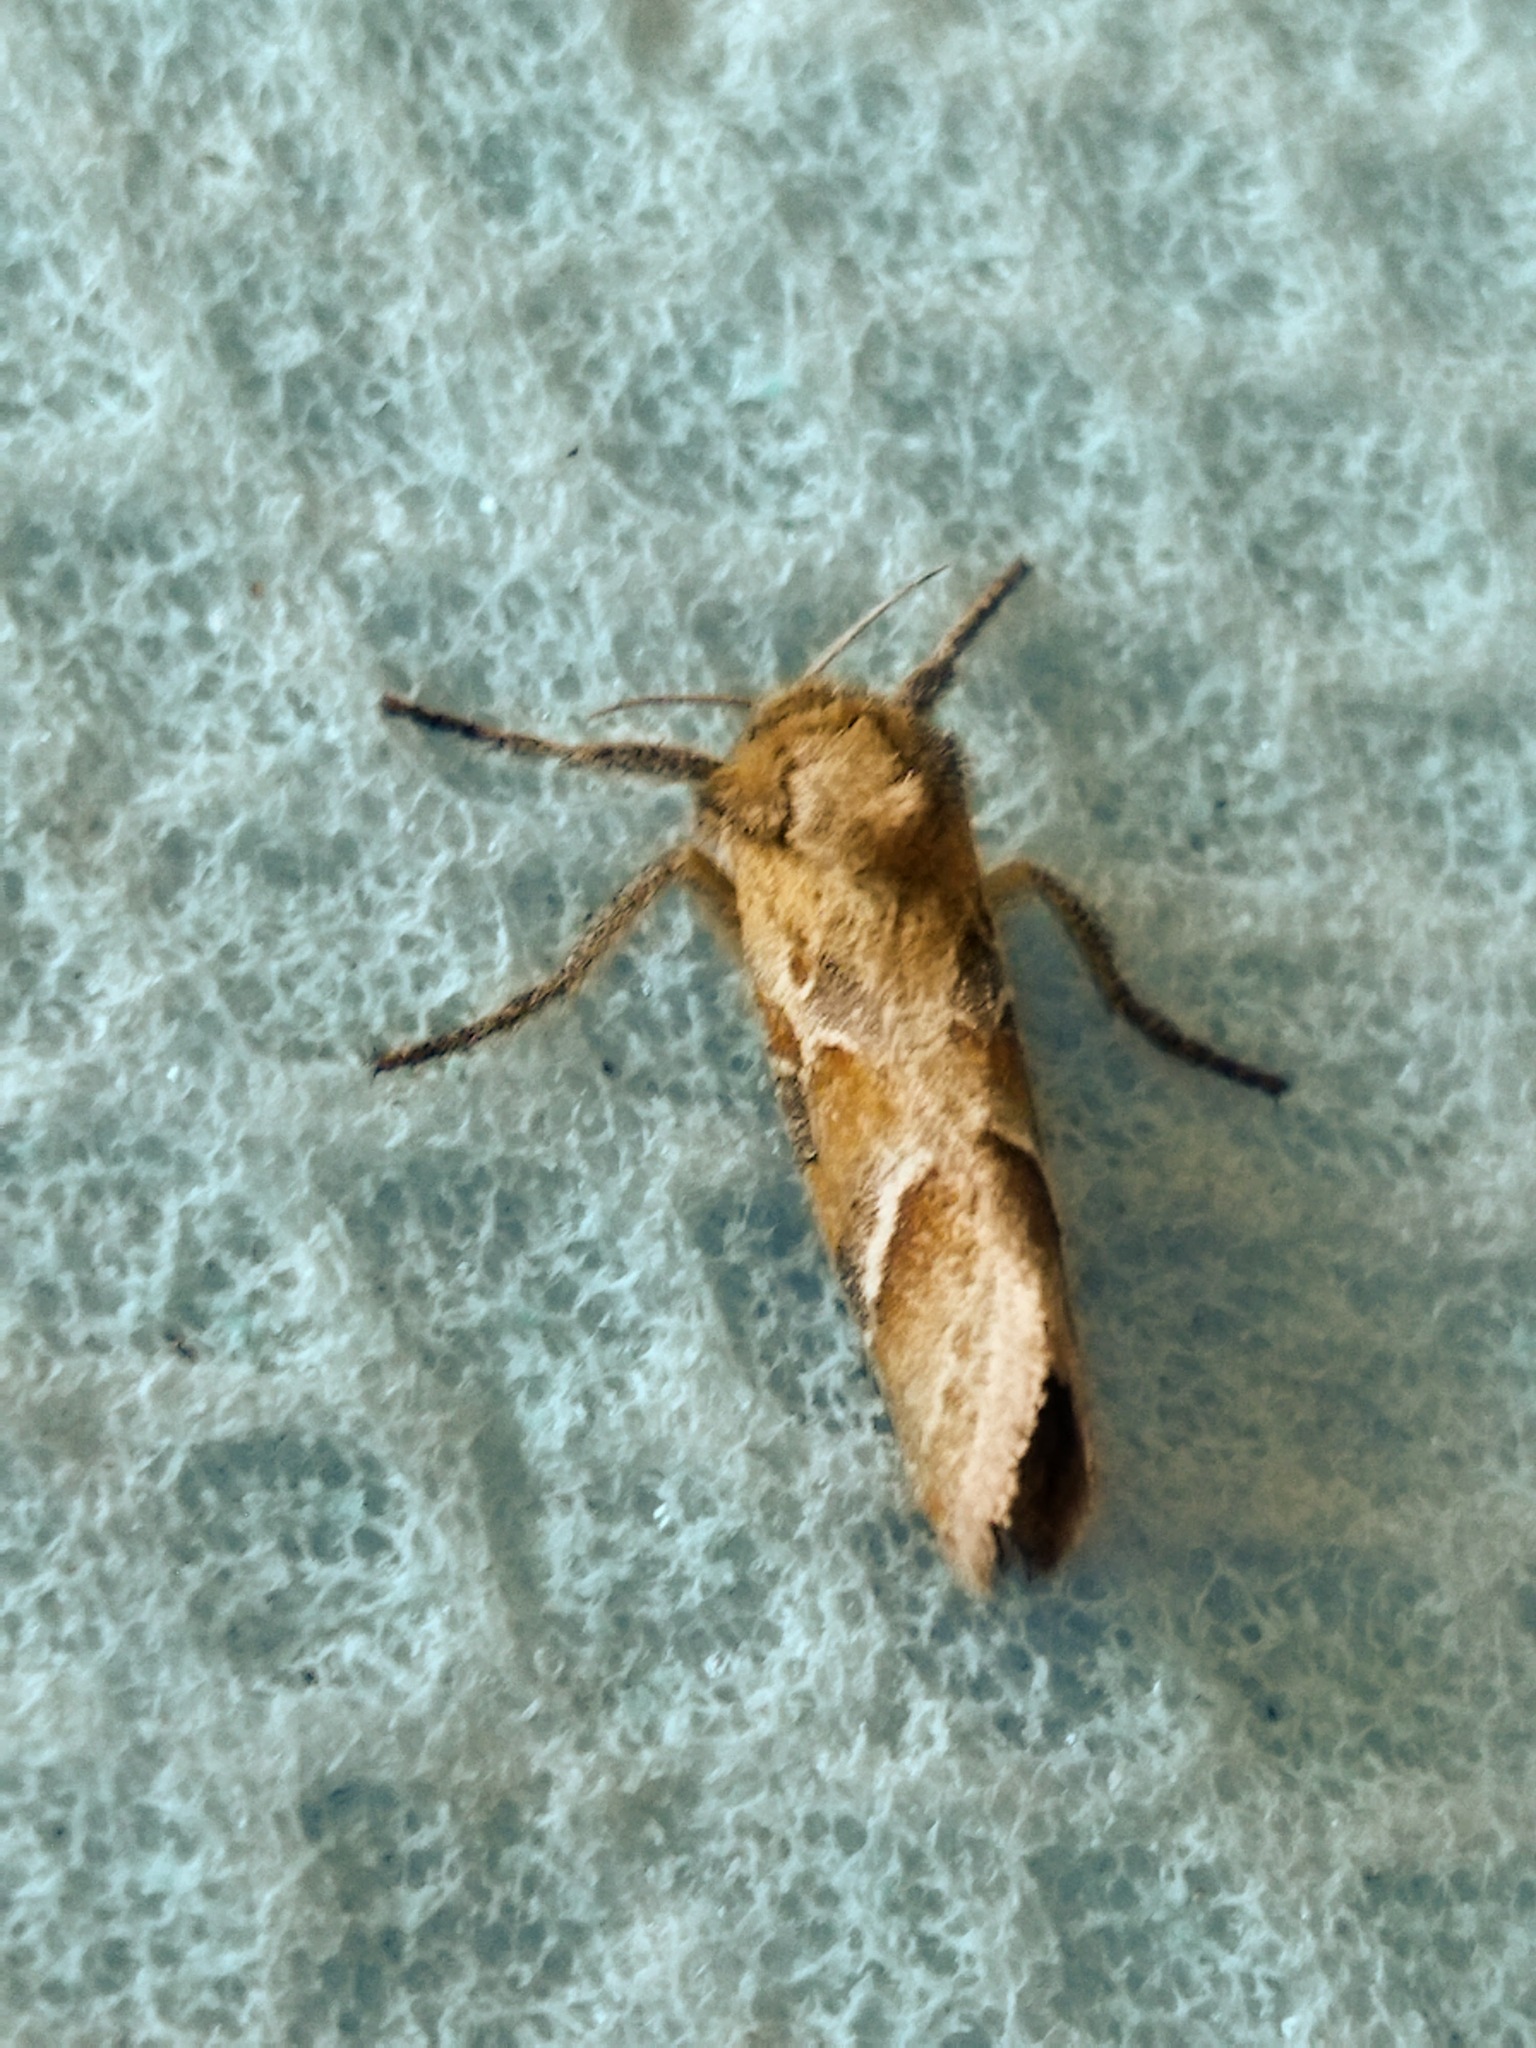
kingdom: Animalia
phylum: Arthropoda
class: Insecta
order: Lepidoptera
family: Hepialidae
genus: Triodia
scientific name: Triodia sylvina
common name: Orange swift
